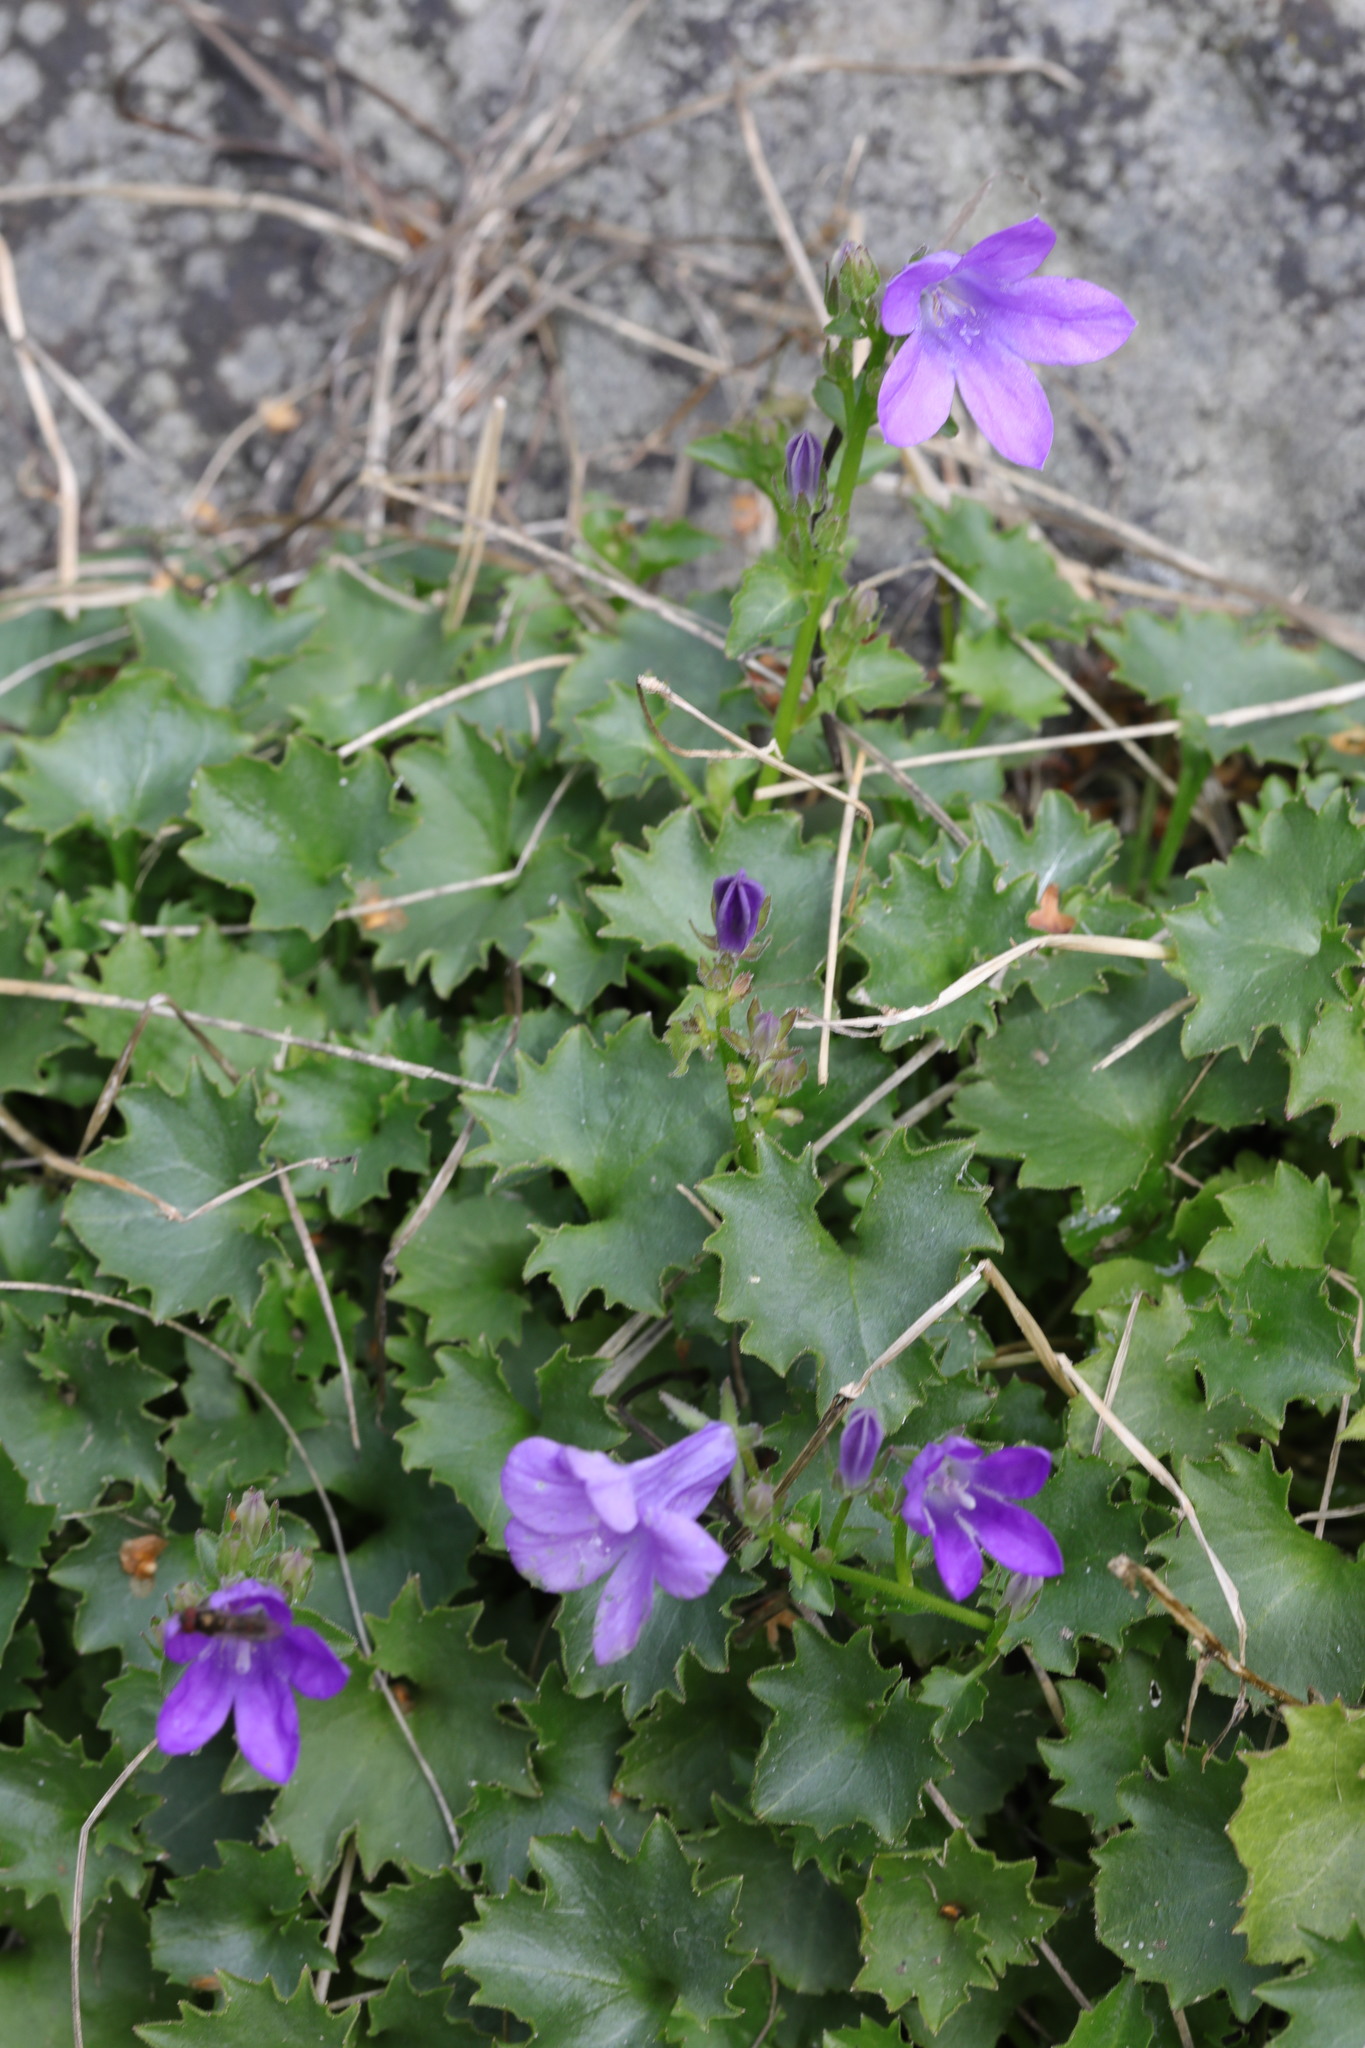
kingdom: Plantae
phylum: Tracheophyta
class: Magnoliopsida
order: Asterales
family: Campanulaceae
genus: Campanula
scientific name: Campanula portenschlagiana
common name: Adria bellflower
